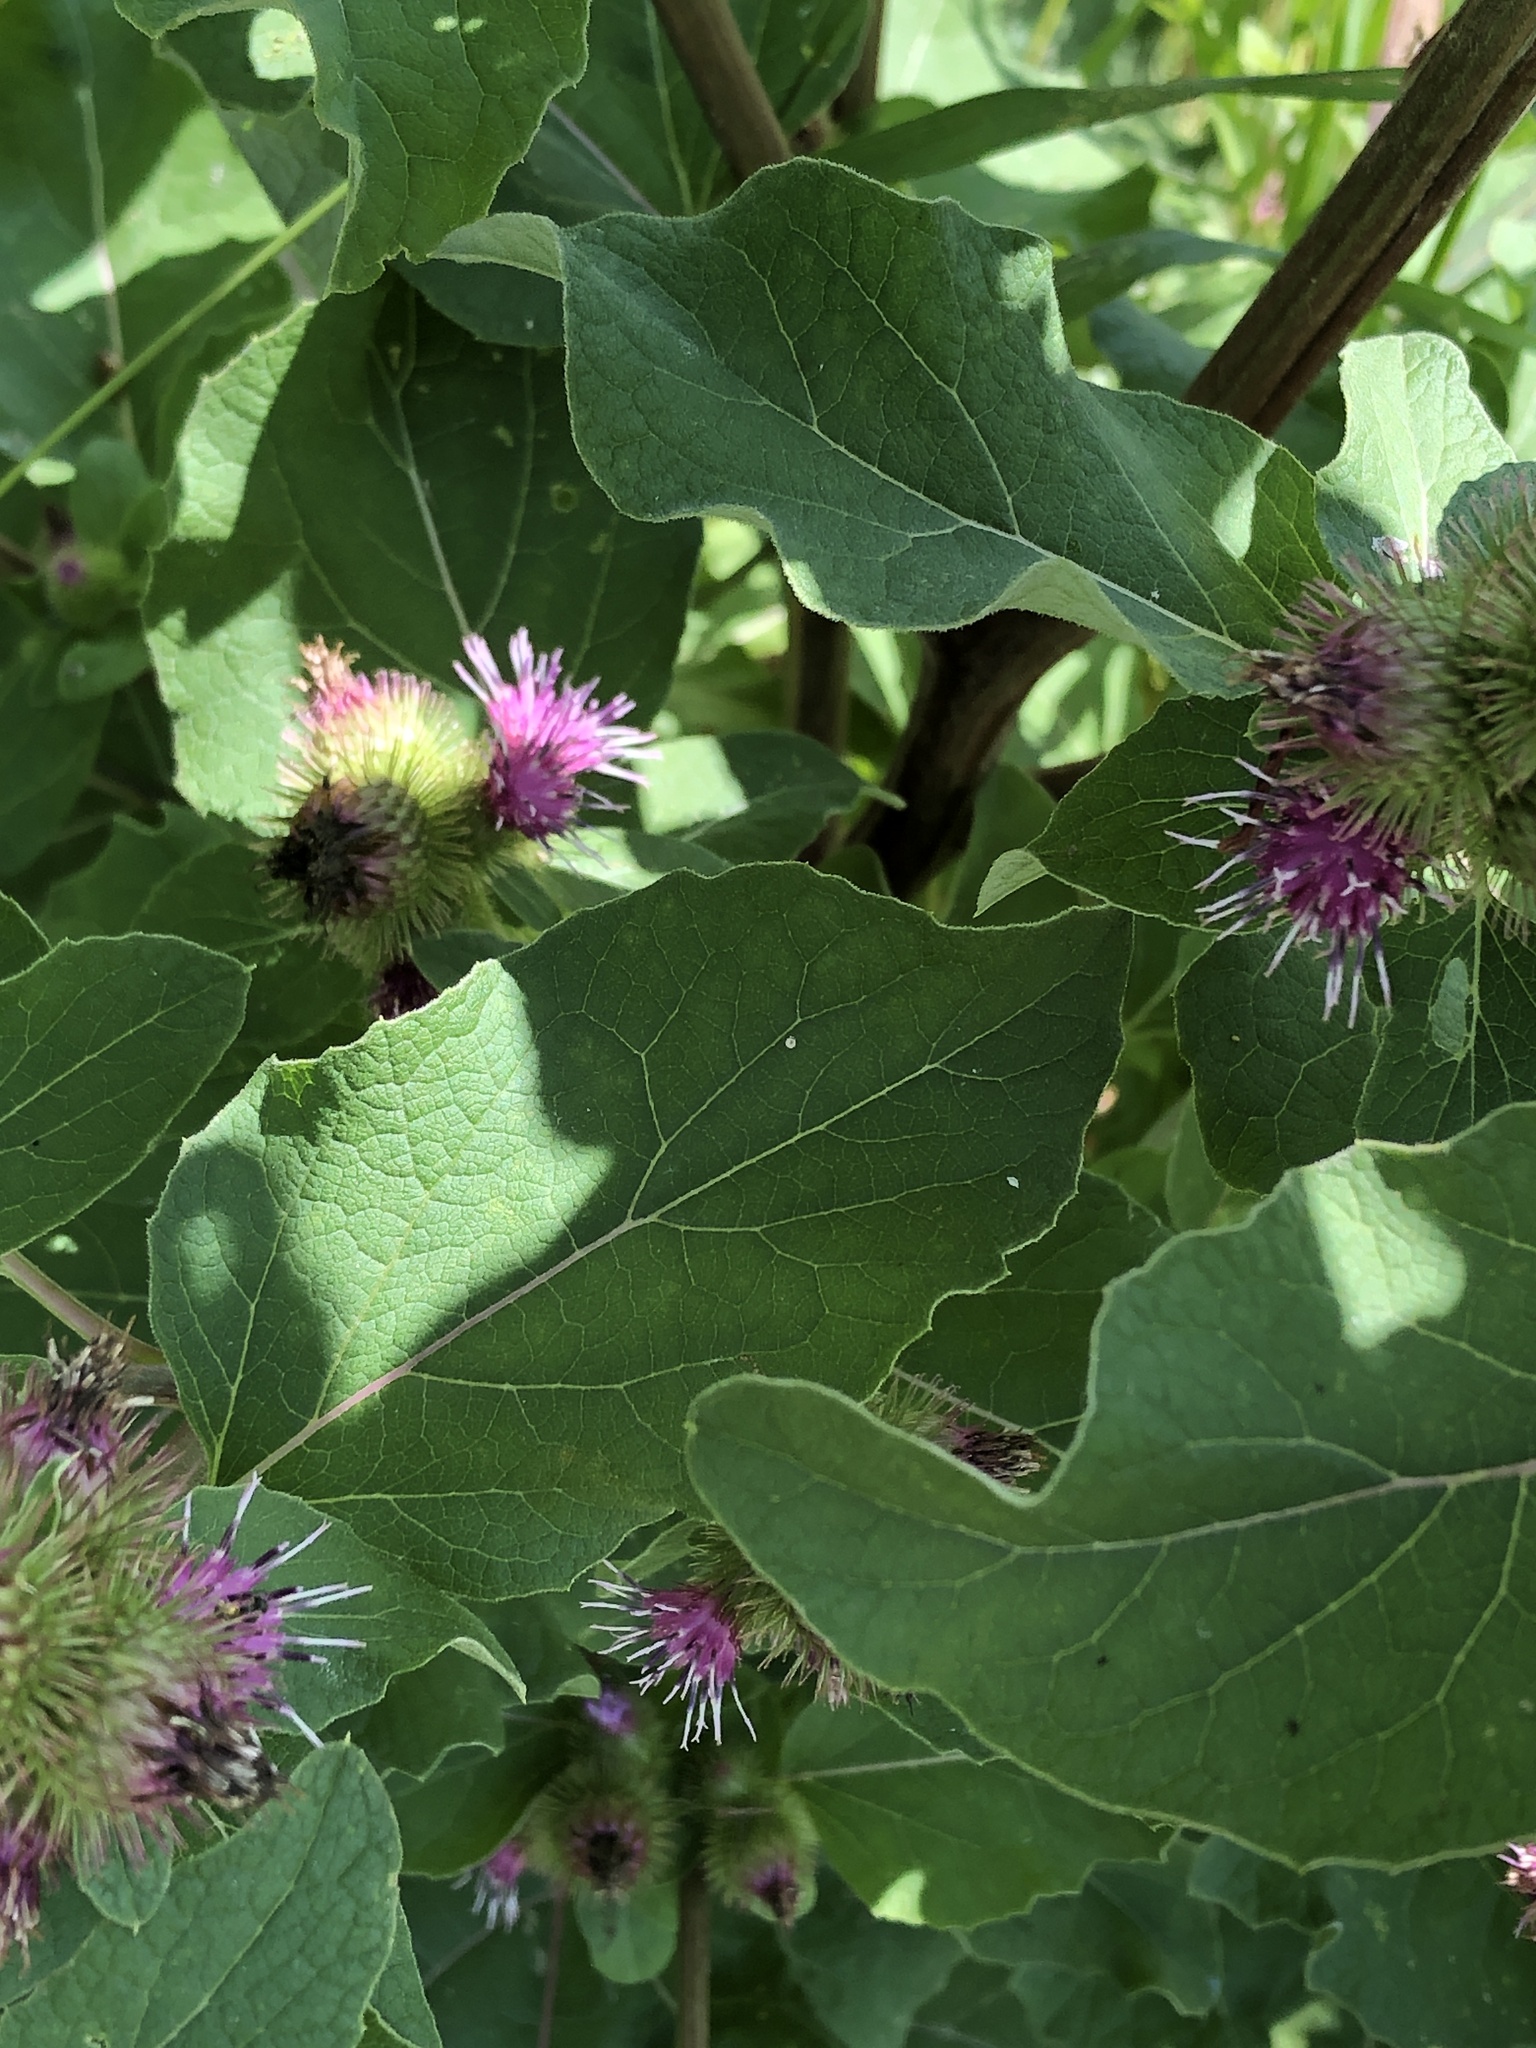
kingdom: Plantae
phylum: Tracheophyta
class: Magnoliopsida
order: Asterales
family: Asteraceae
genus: Arctium
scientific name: Arctium minus
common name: Lesser burdock
